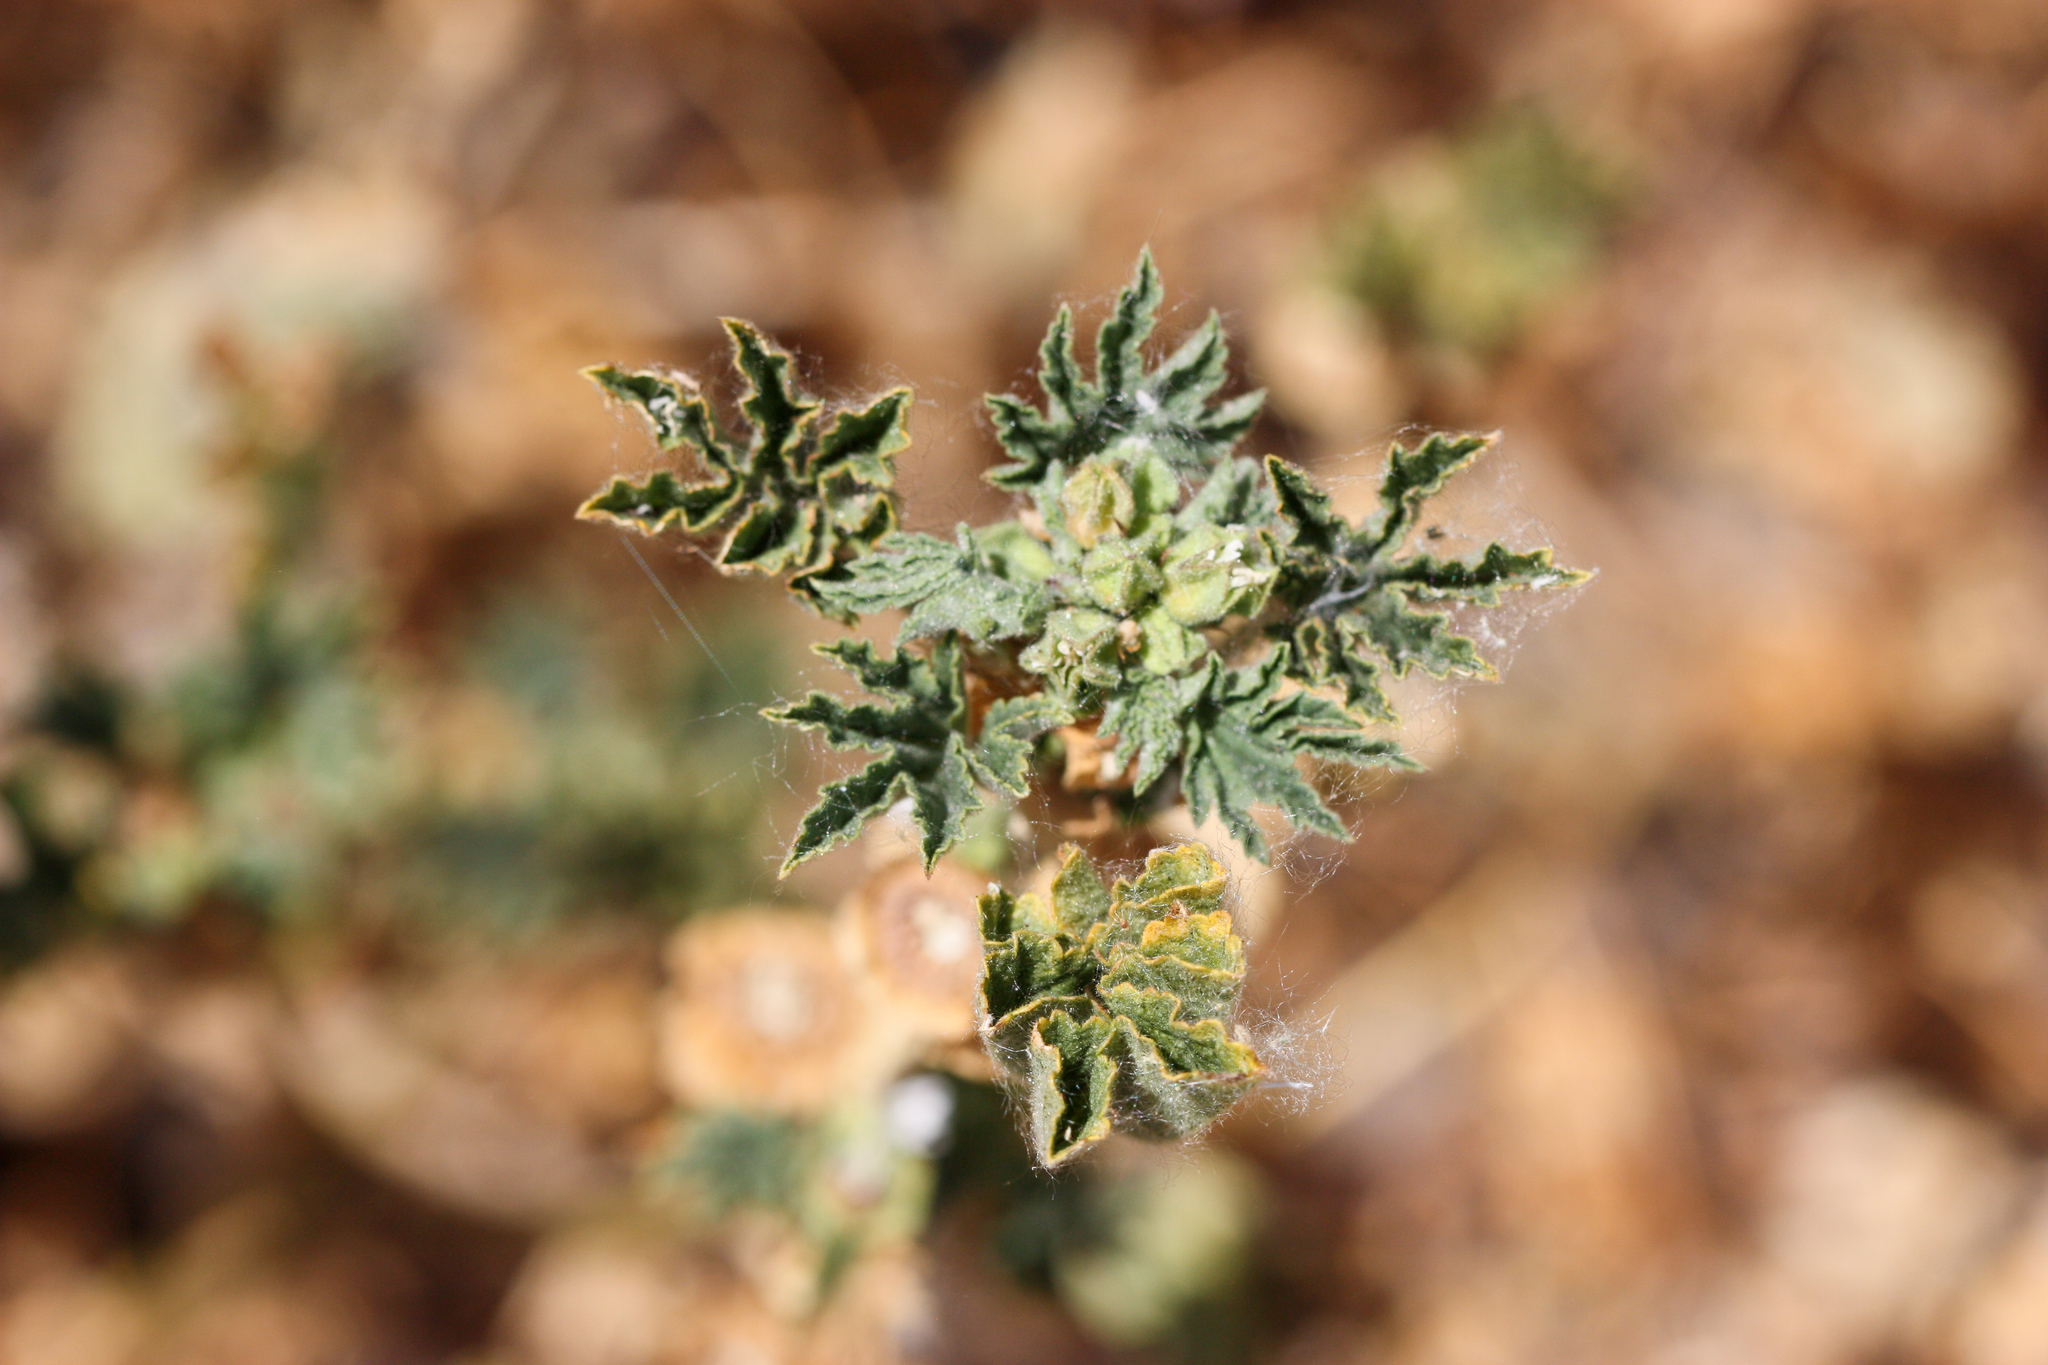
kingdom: Plantae
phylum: Tracheophyta
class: Magnoliopsida
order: Malvales
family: Malvaceae
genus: Malva
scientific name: Malva parviflora
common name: Least mallow
